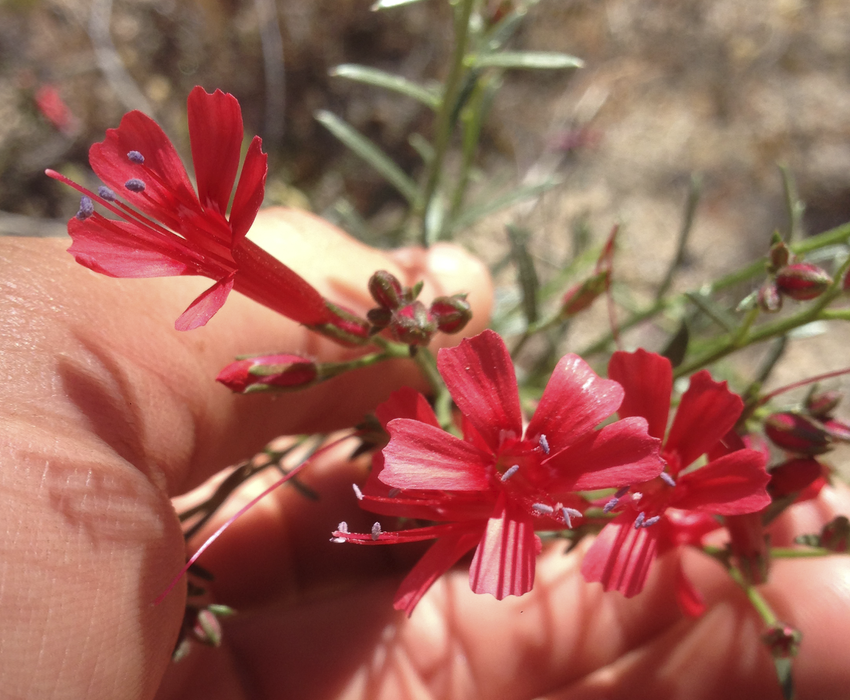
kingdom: Plantae
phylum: Tracheophyta
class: Magnoliopsida
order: Ericales
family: Polemoniaceae
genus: Ipomopsis
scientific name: Ipomopsis tenuifolia
